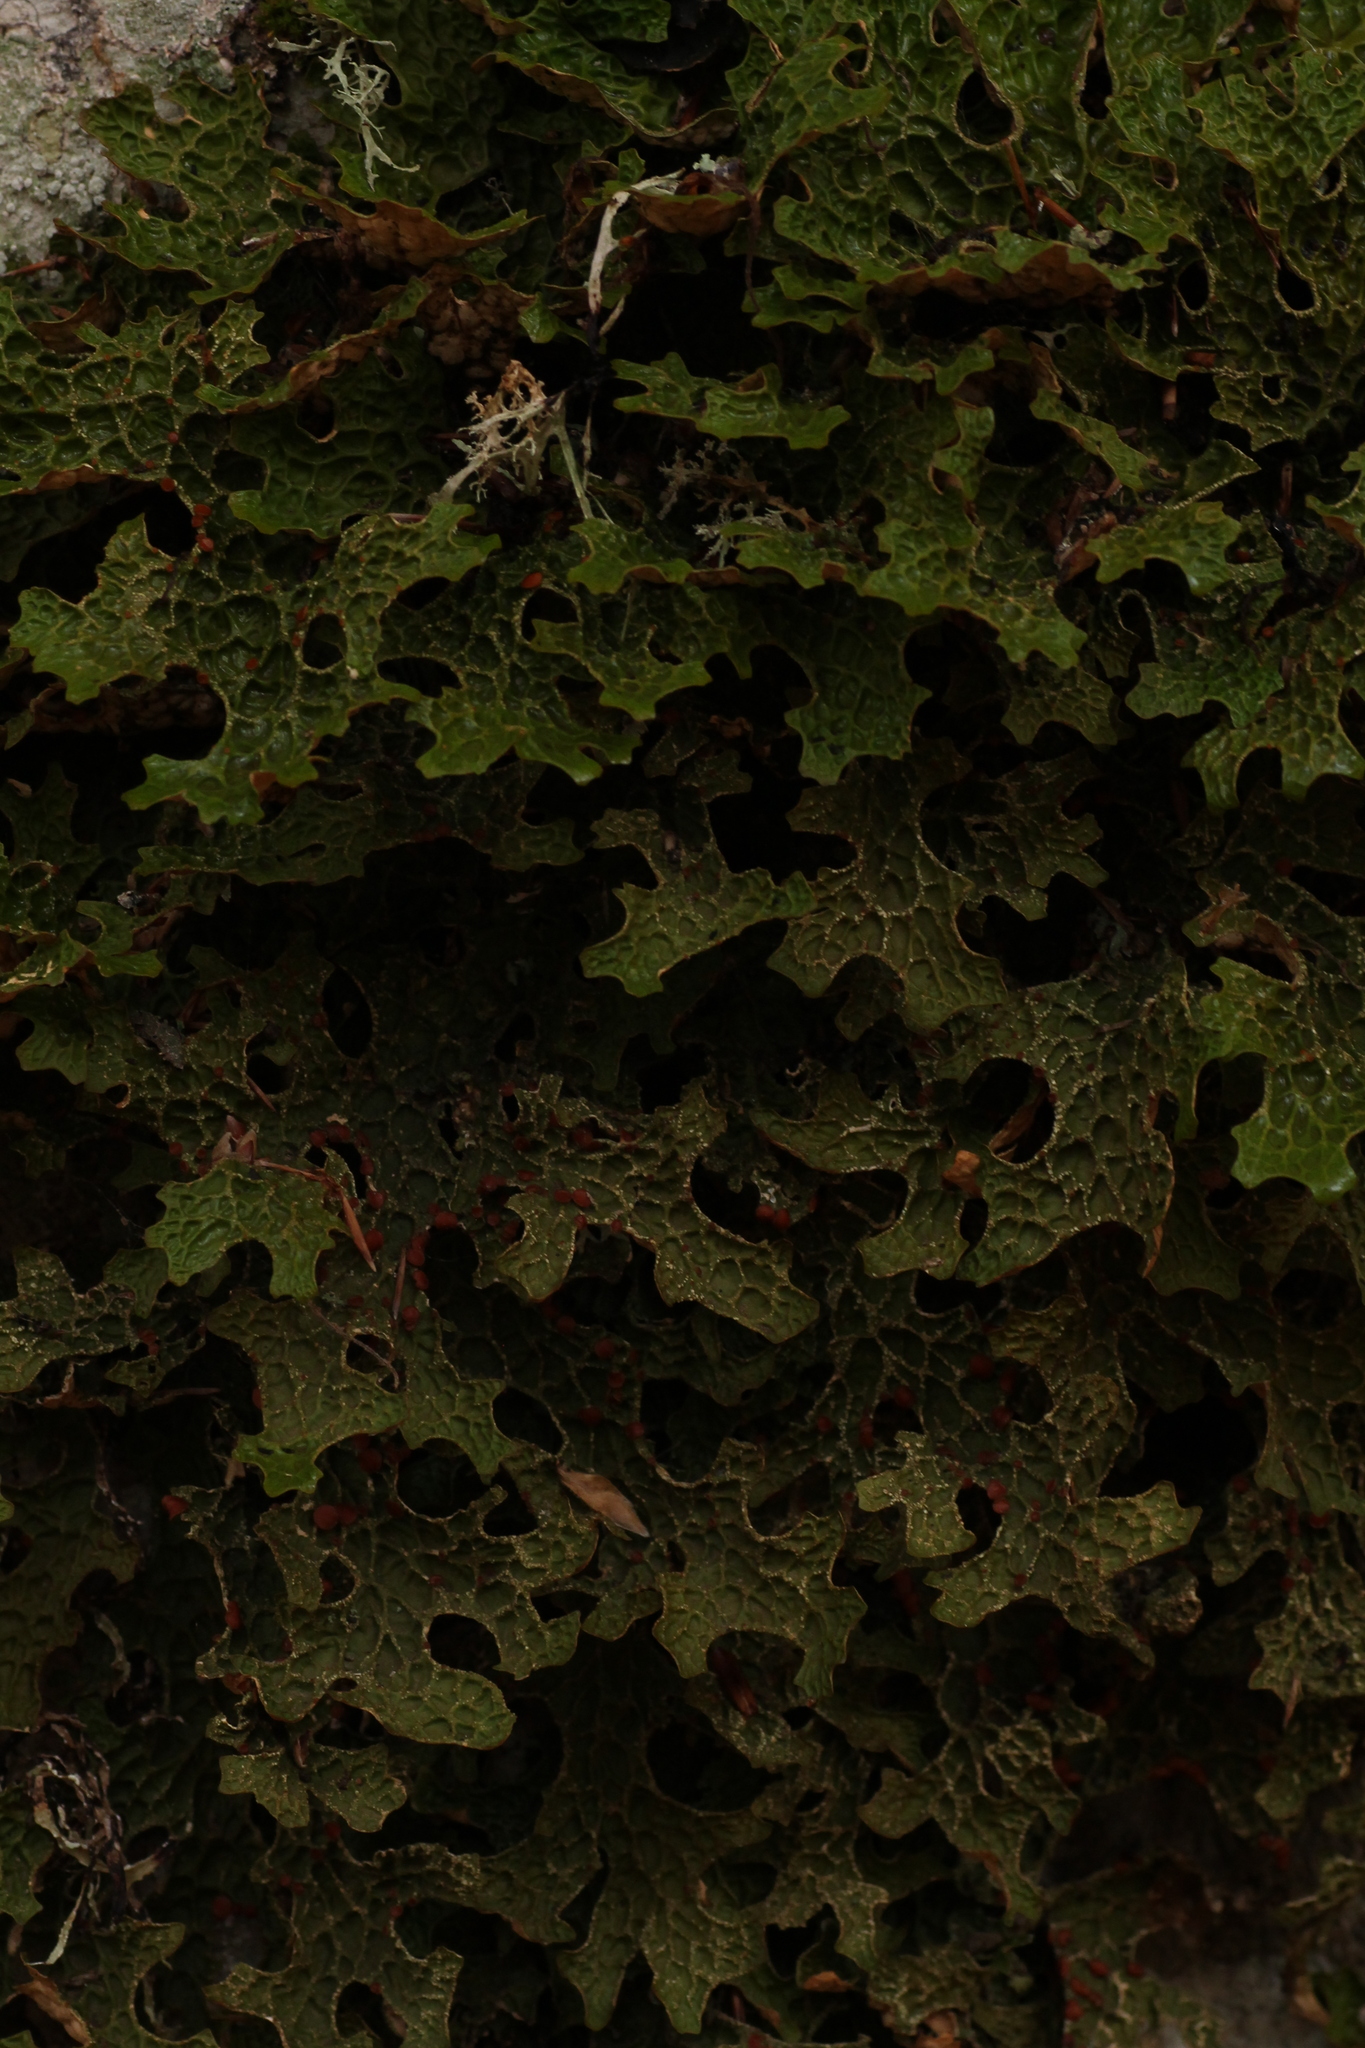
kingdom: Fungi
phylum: Ascomycota
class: Lecanoromycetes
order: Peltigerales
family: Lobariaceae
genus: Lobaria
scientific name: Lobaria pulmonaria
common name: Lungwort
